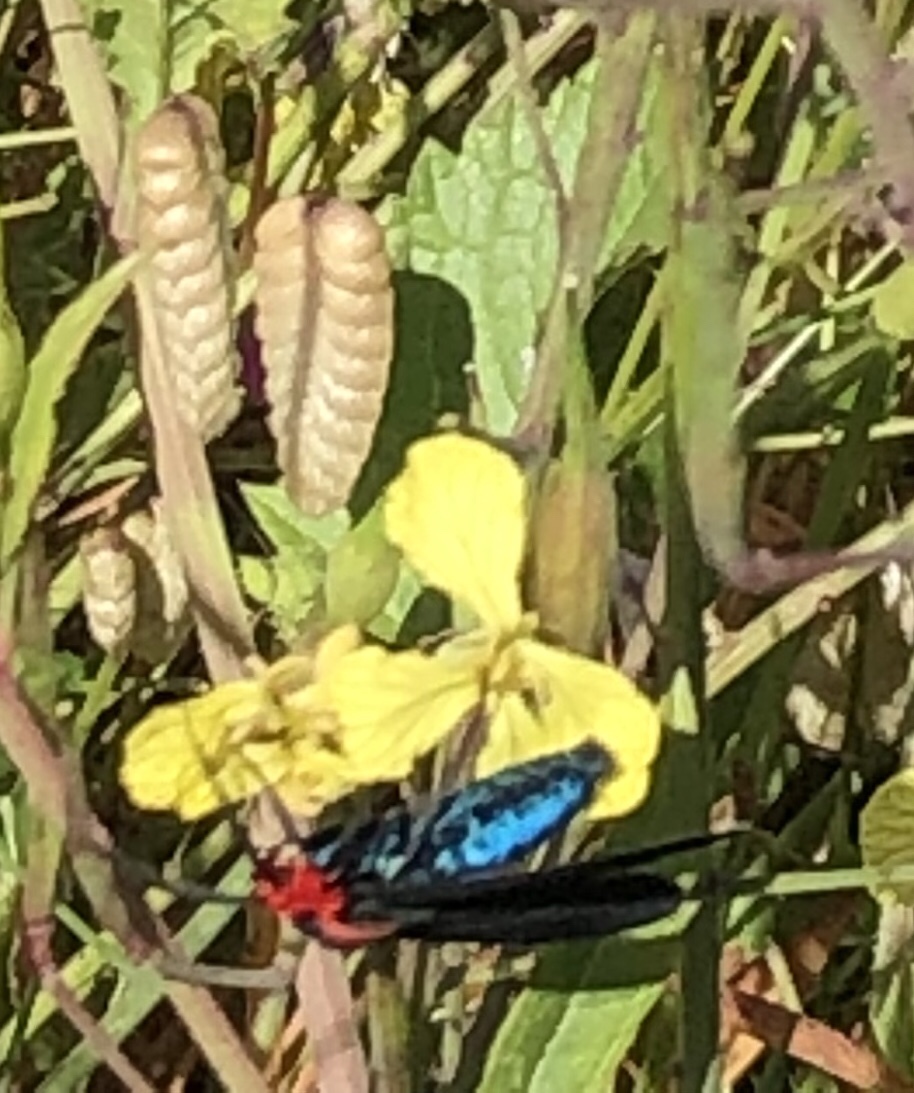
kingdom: Animalia
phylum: Arthropoda
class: Insecta
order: Lepidoptera
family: Erebidae
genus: Ctenucha
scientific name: Ctenucha rubroscapus
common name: Red-shouldered ctenucha
